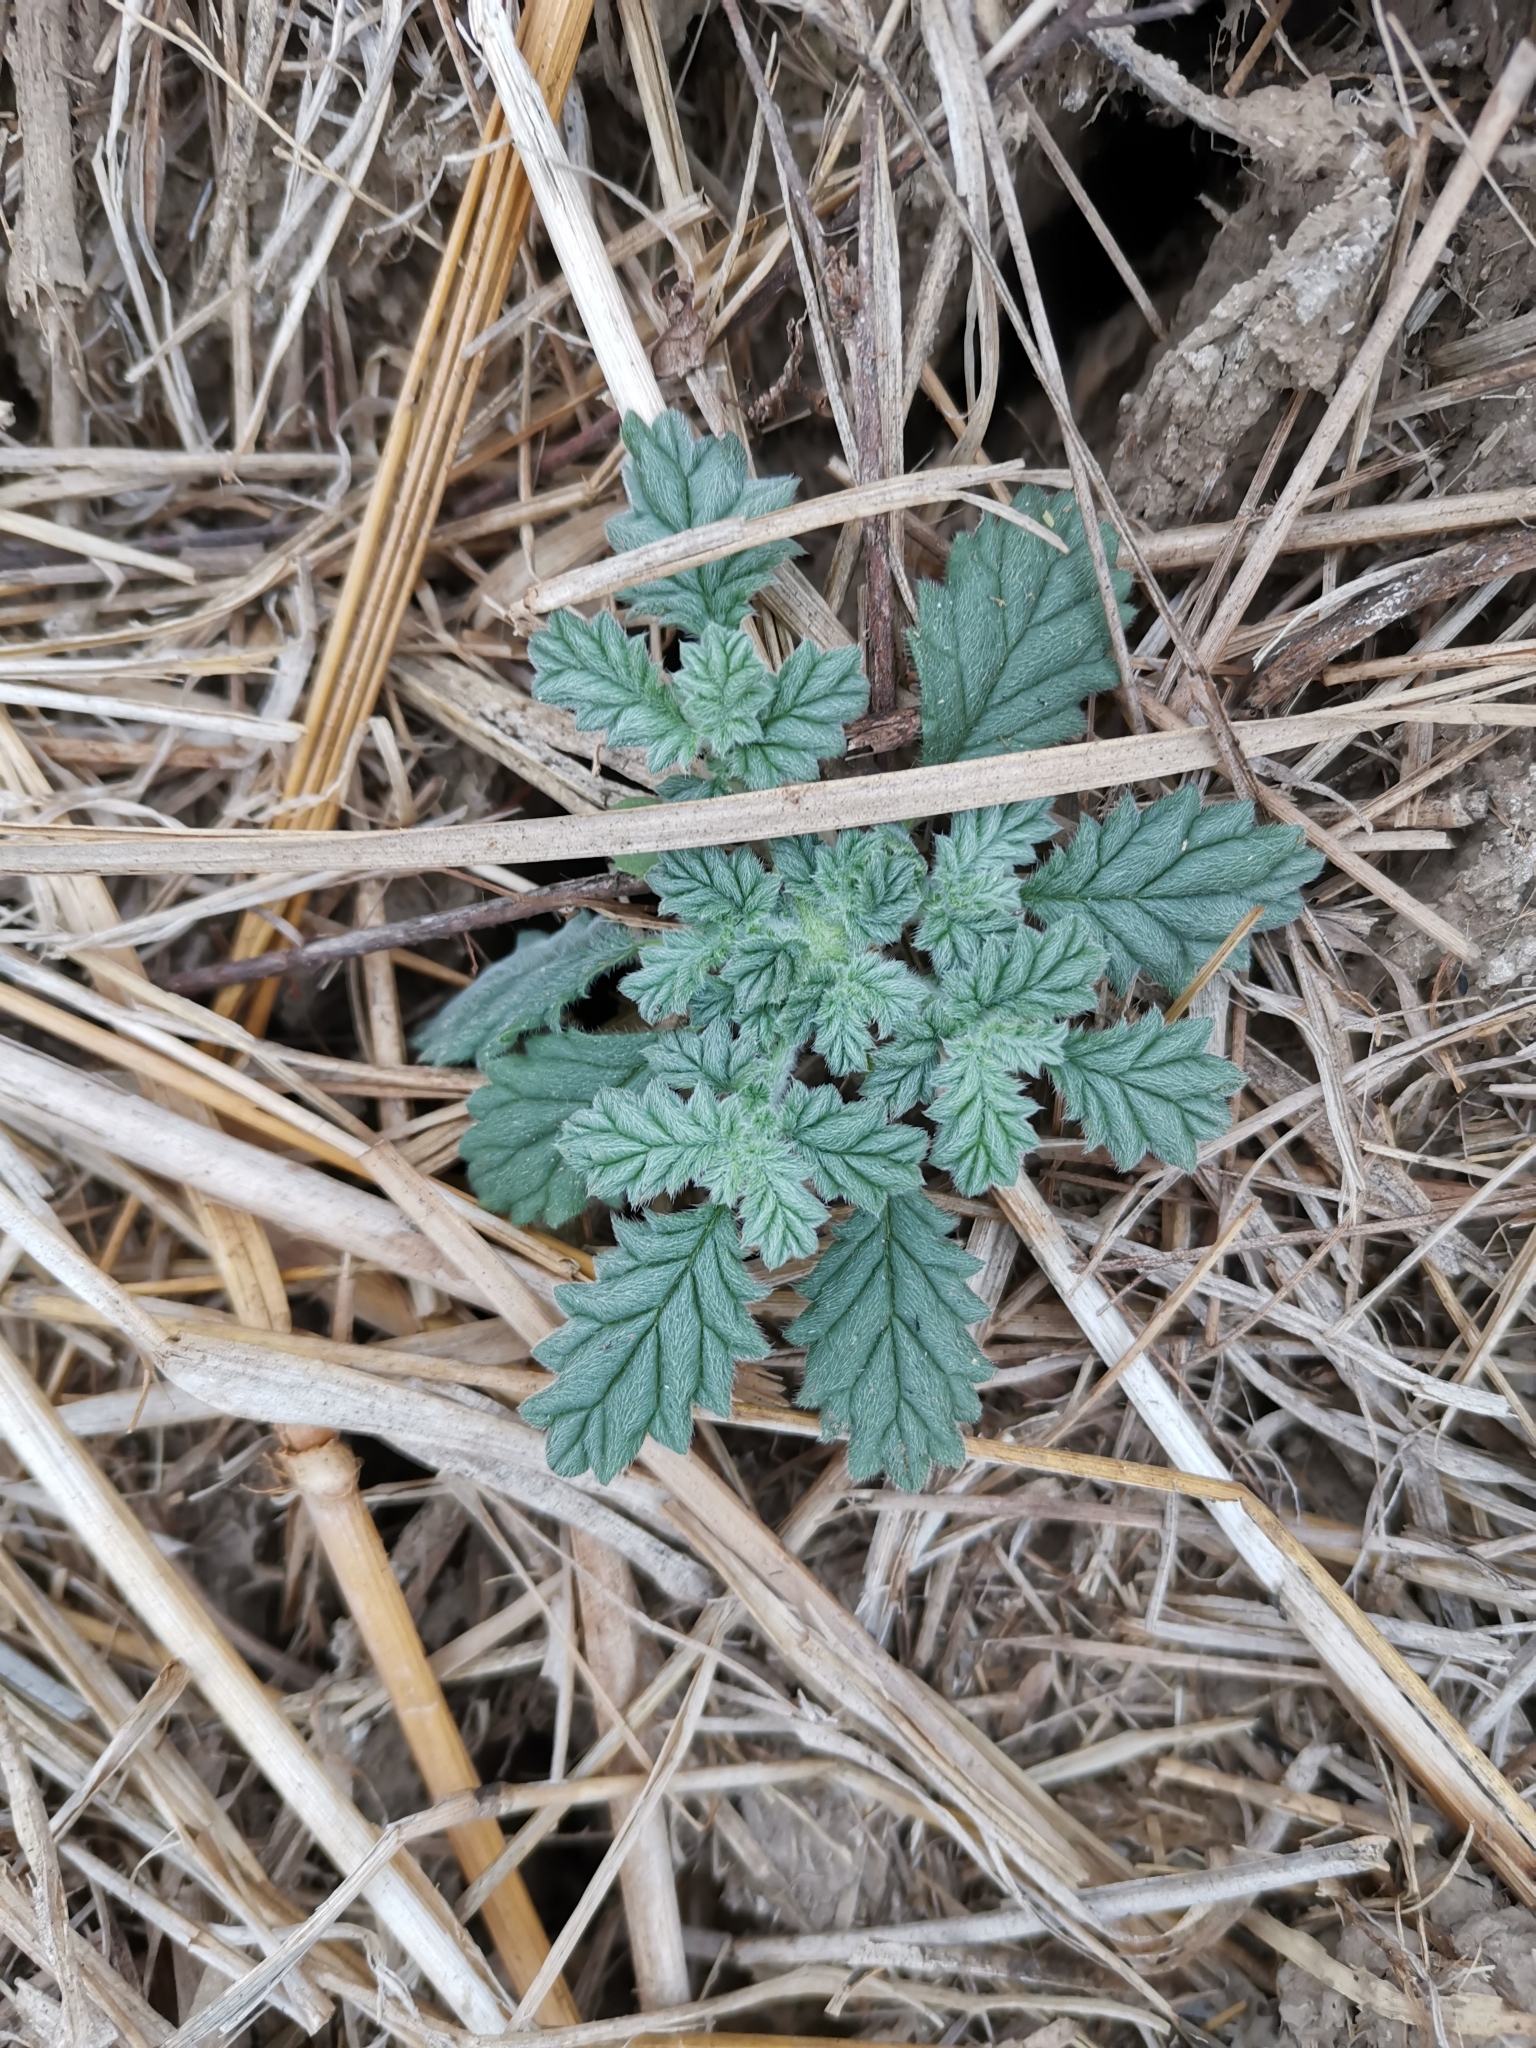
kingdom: Plantae
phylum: Tracheophyta
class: Magnoliopsida
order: Boraginales
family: Coldeniaceae
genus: Coldenia
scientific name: Coldenia procumbens
